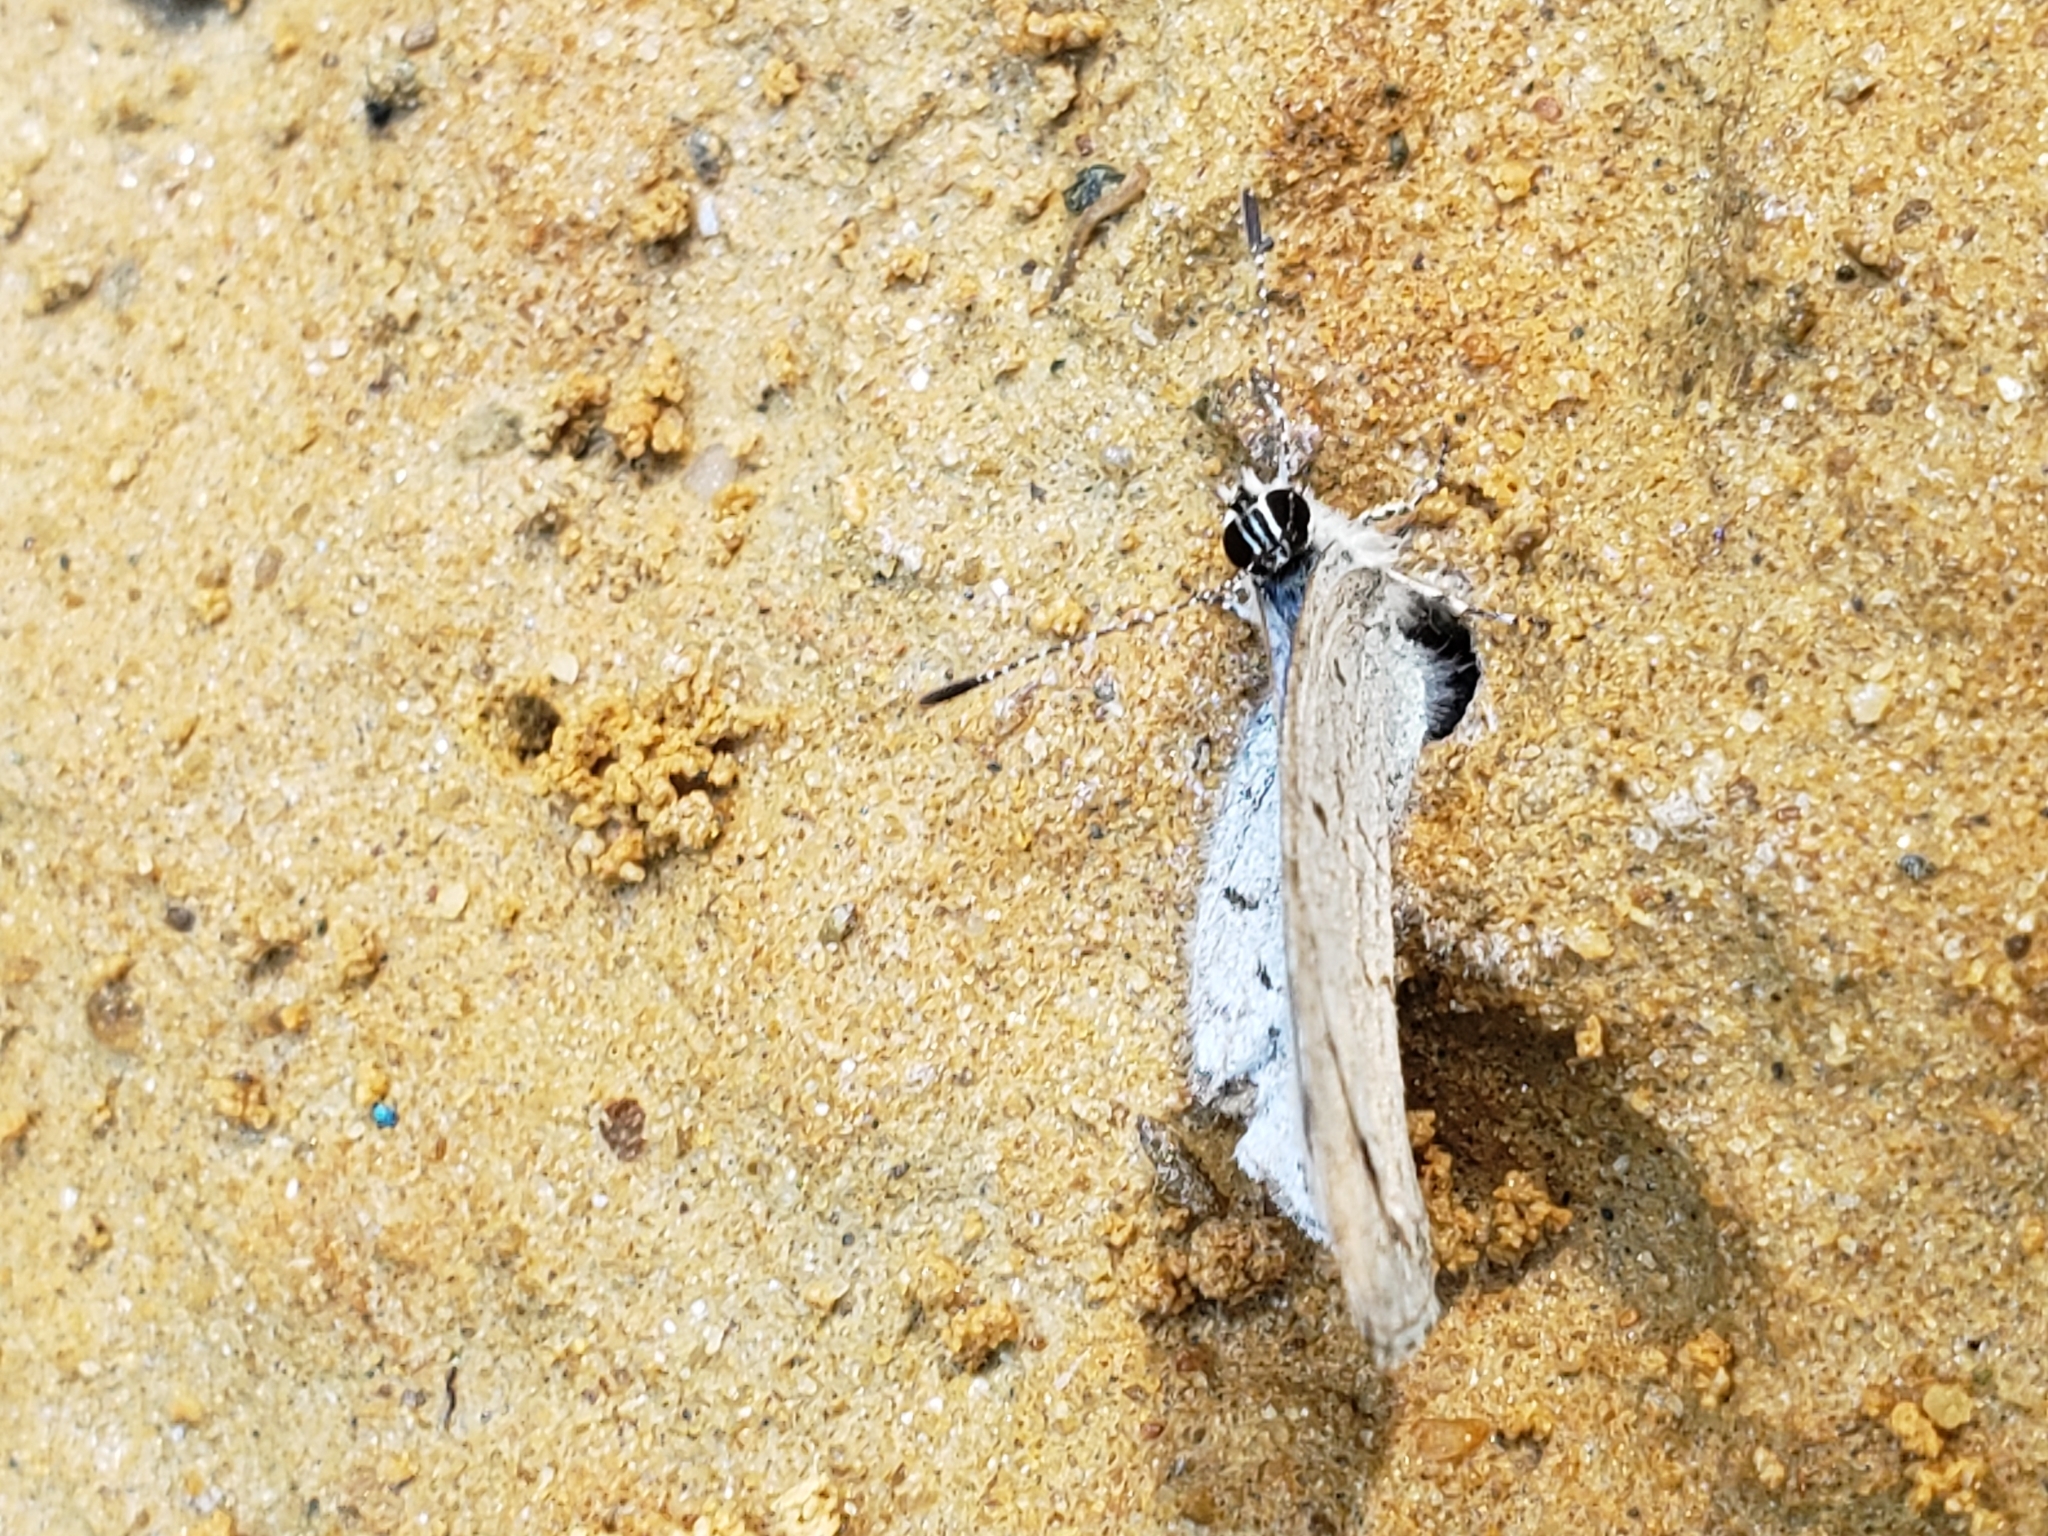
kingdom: Animalia
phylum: Arthropoda
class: Insecta
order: Lepidoptera
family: Lycaenidae
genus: Cyaniris
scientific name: Cyaniris neglecta
